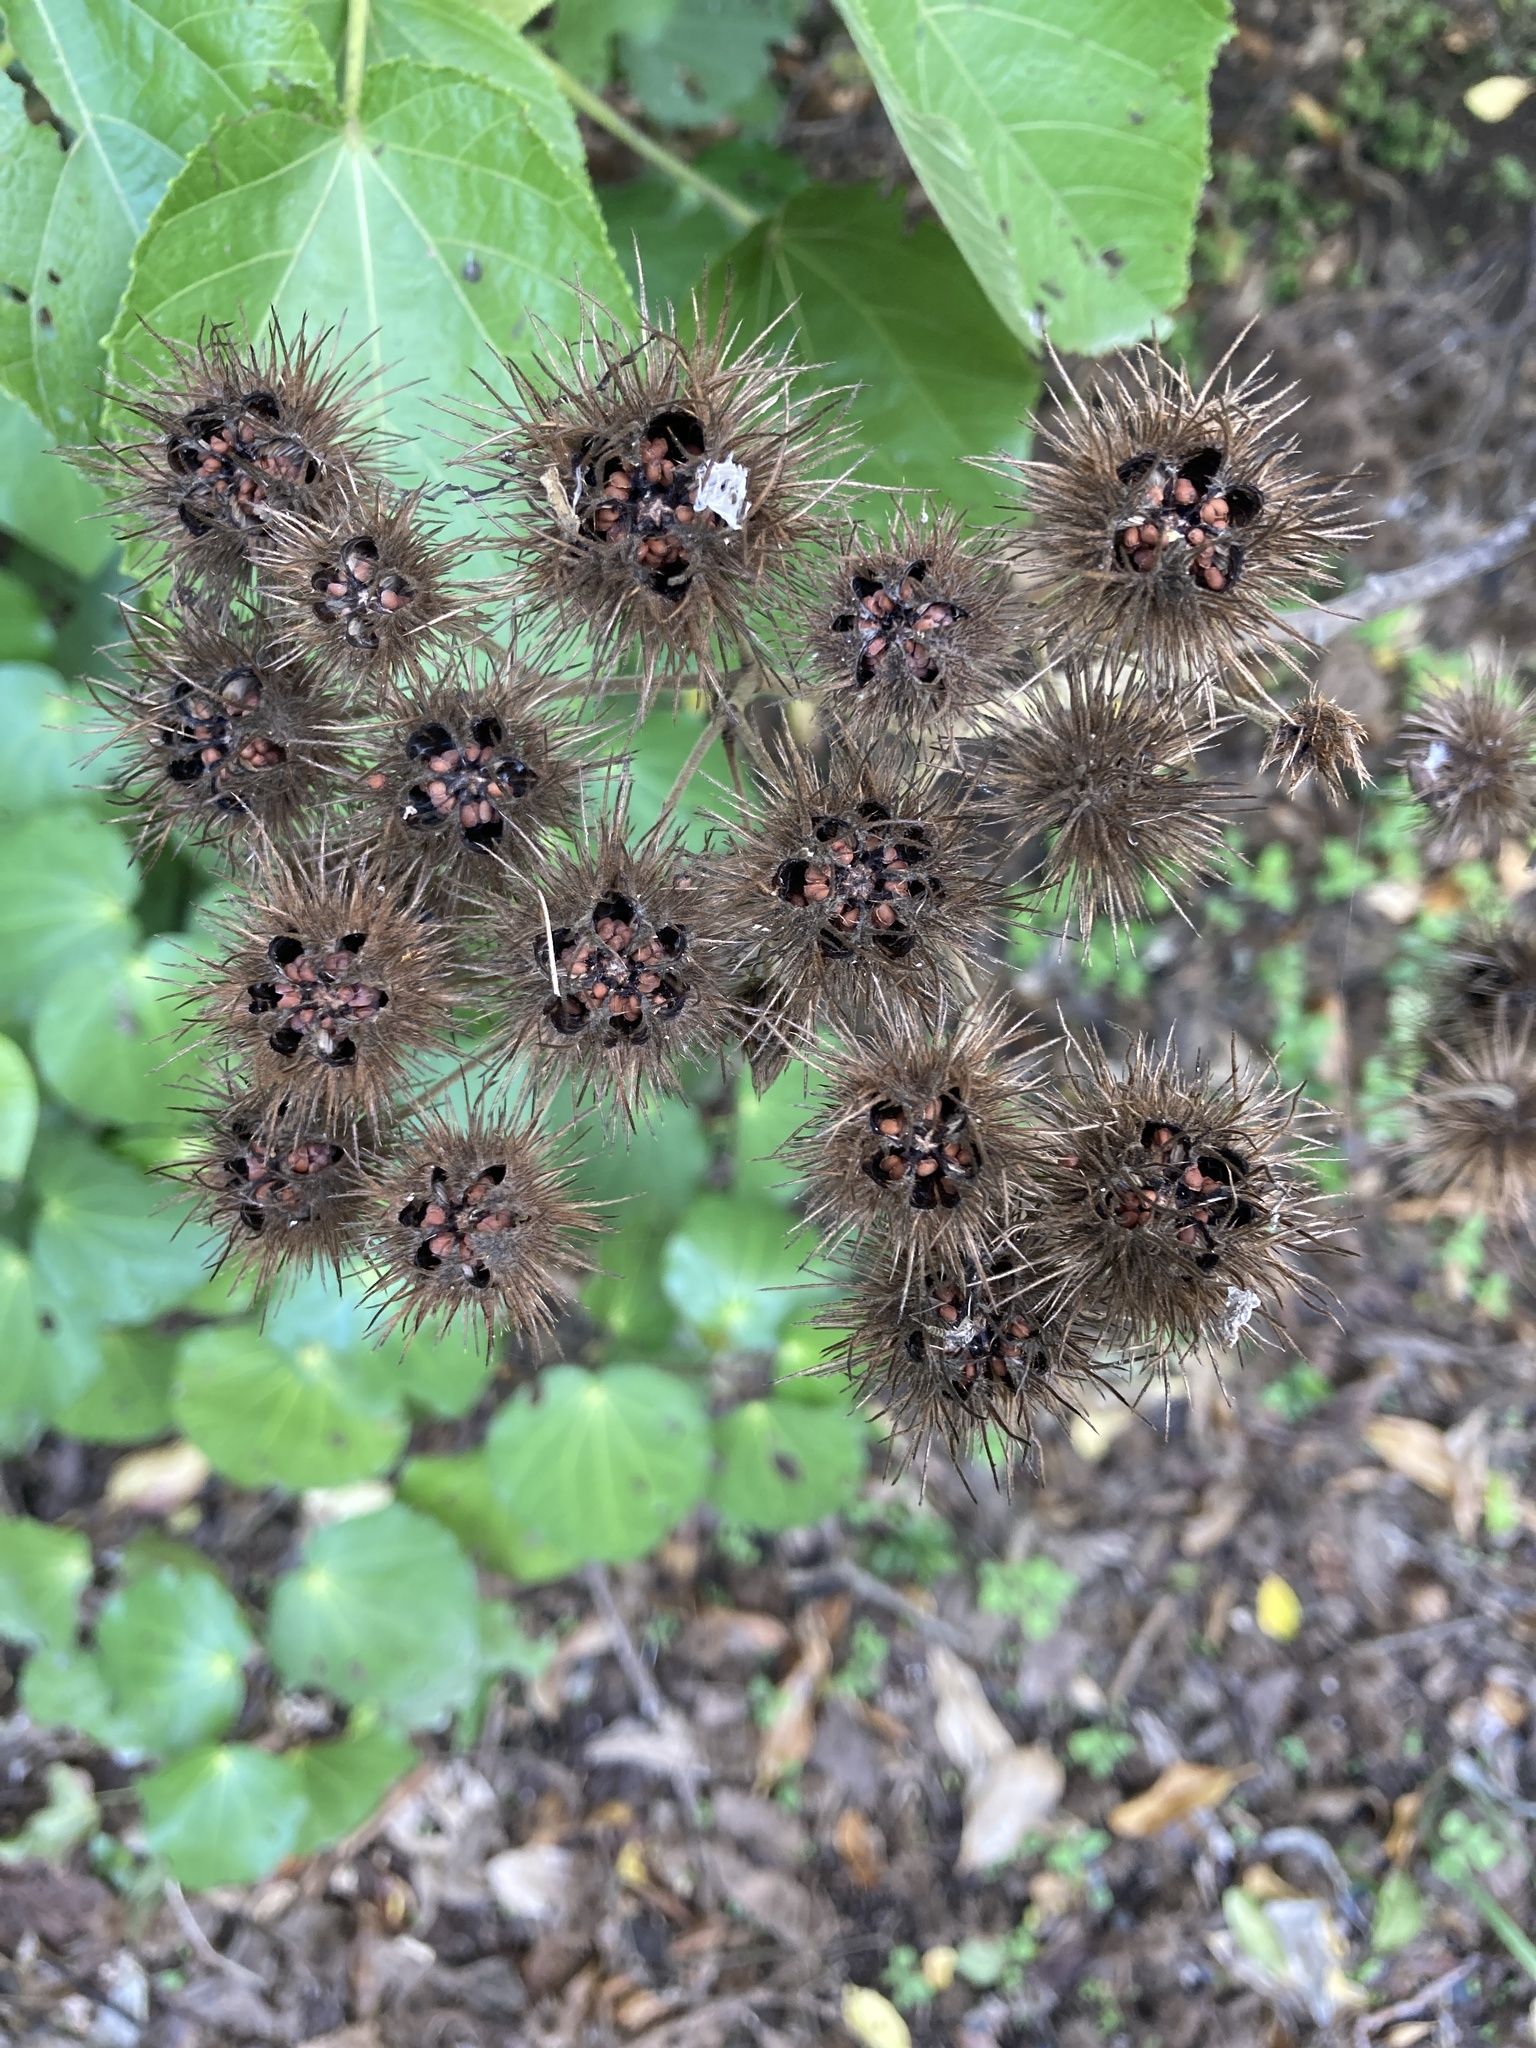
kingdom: Plantae
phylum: Tracheophyta
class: Magnoliopsida
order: Malvales
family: Malvaceae
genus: Entelea
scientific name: Entelea arborescens
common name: New zealand-mulberry
